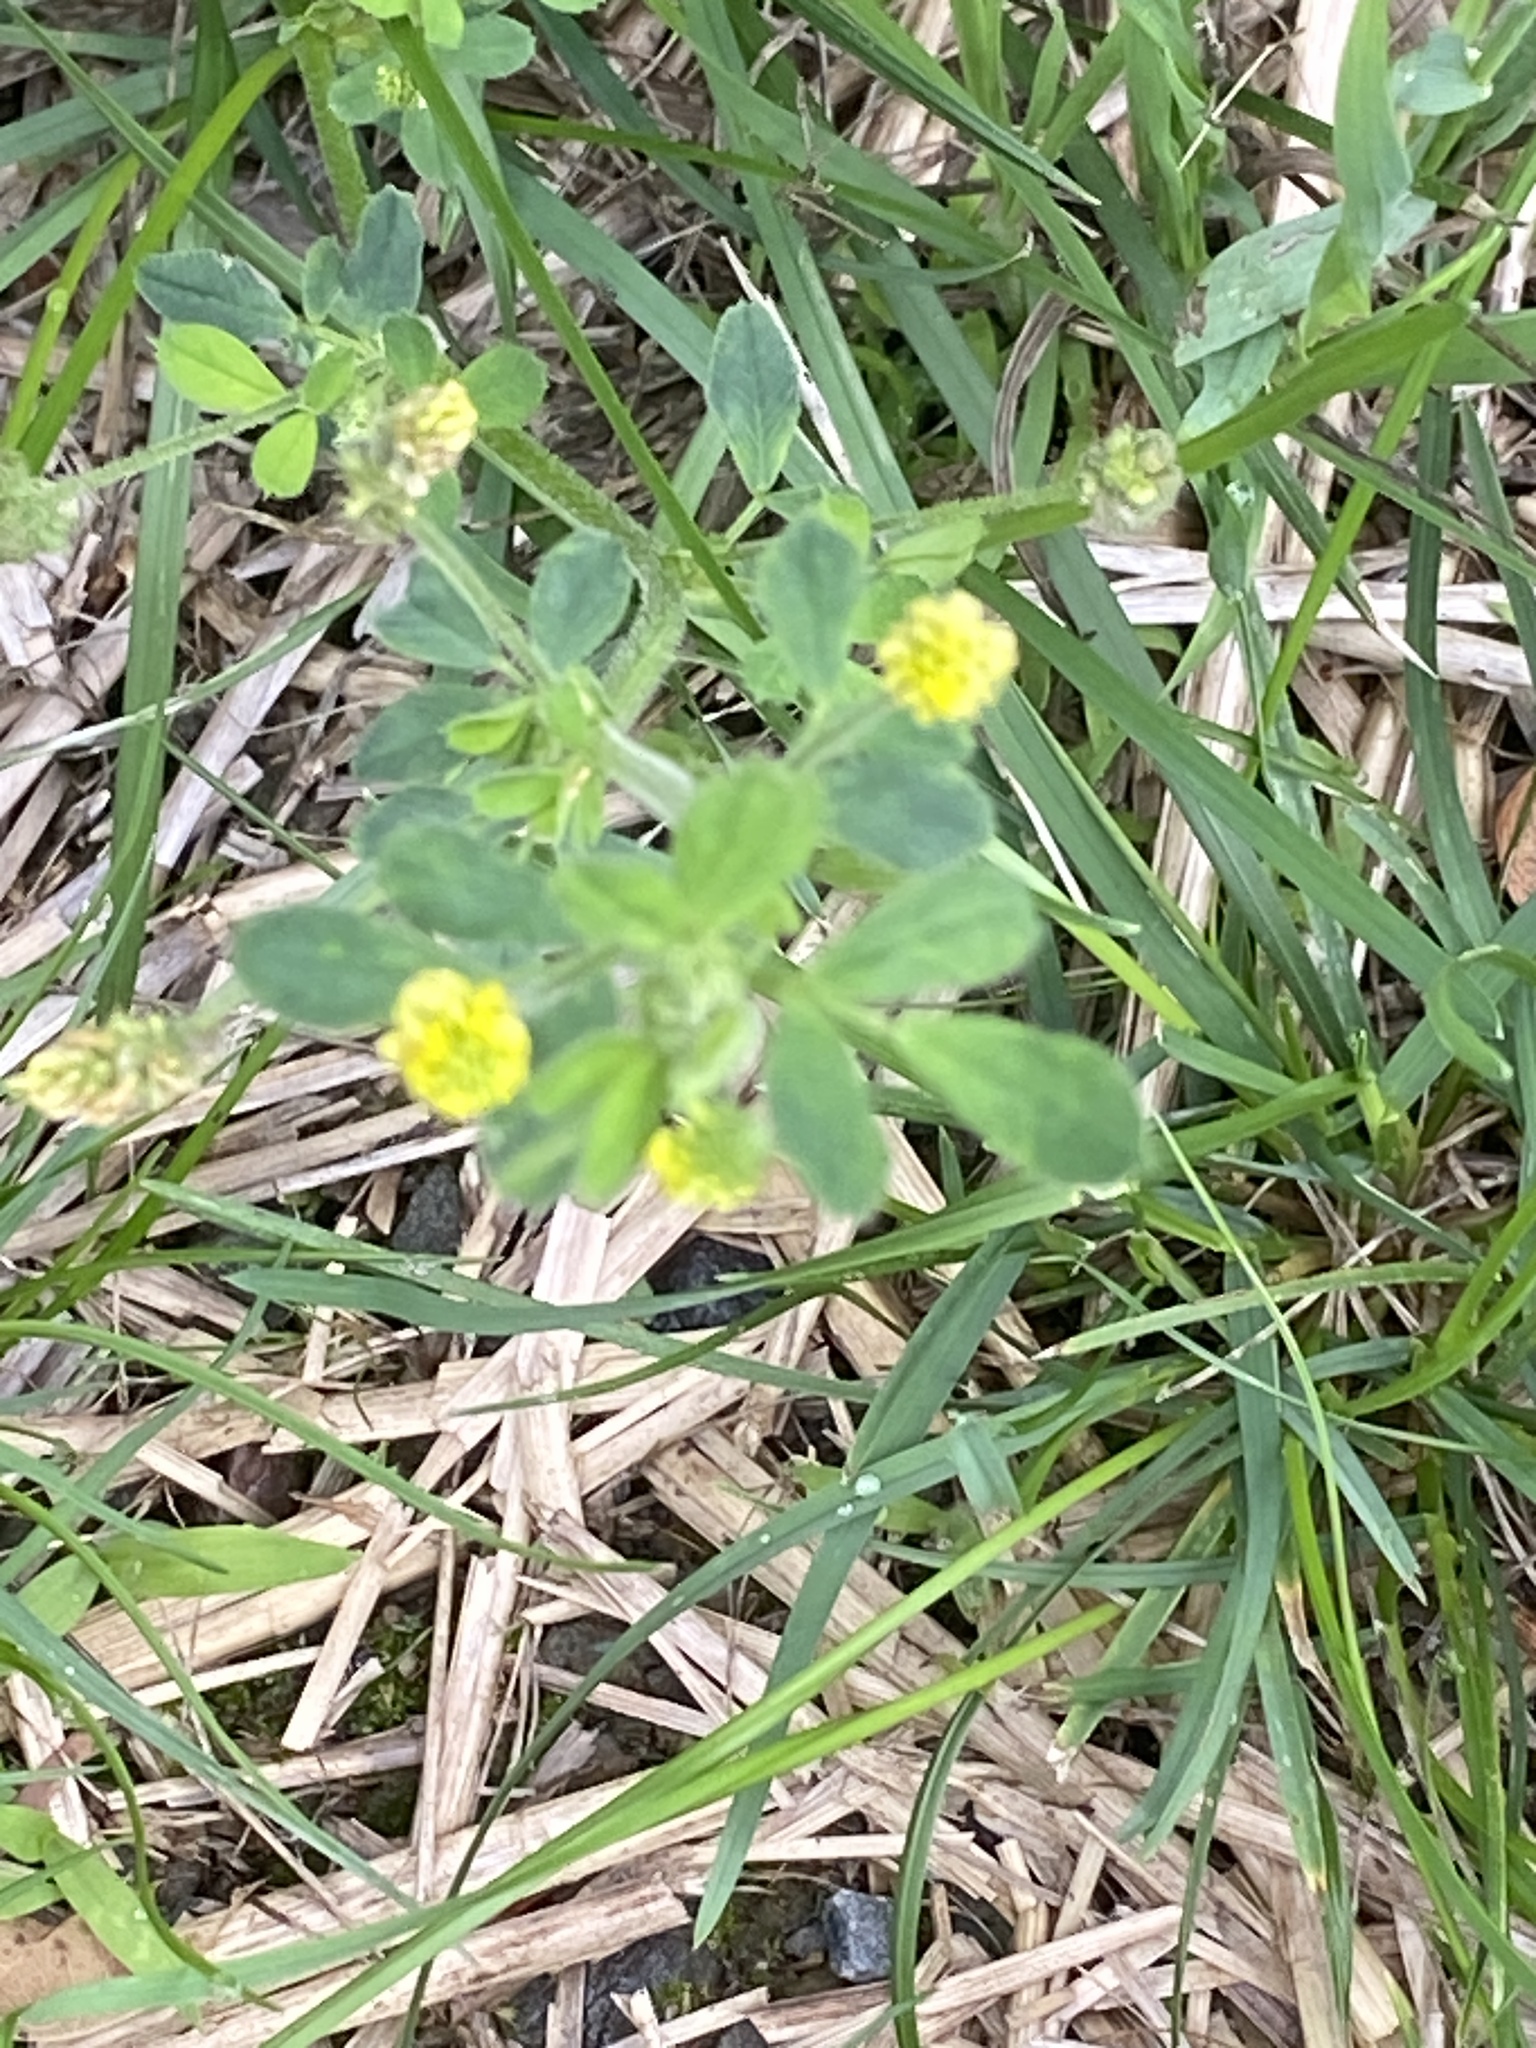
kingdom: Plantae
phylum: Tracheophyta
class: Magnoliopsida
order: Fabales
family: Fabaceae
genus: Medicago
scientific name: Medicago lupulina
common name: Black medick
